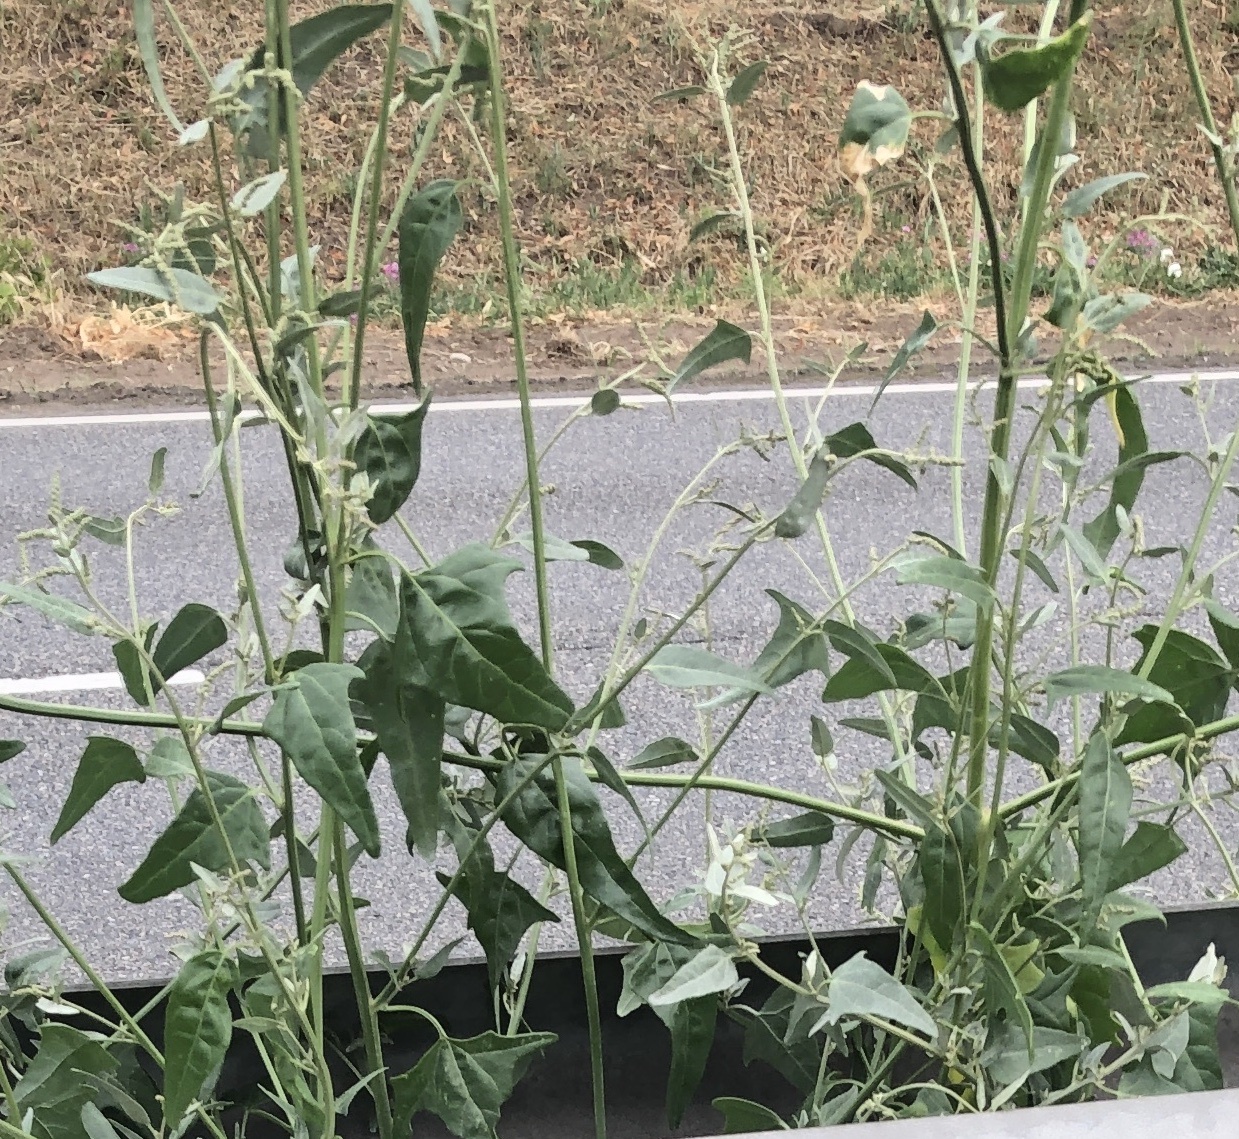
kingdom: Plantae
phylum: Tracheophyta
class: Magnoliopsida
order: Caryophyllales
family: Amaranthaceae
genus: Atriplex
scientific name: Atriplex micrantha
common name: Twoscale saltbush
